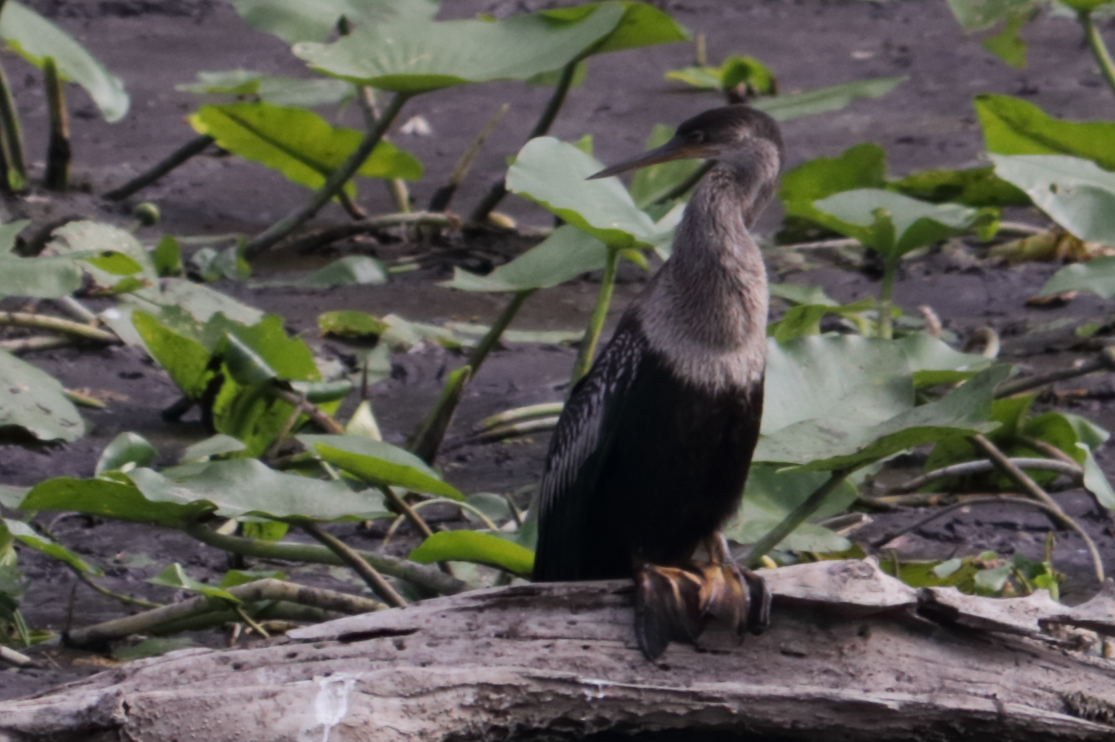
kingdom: Animalia
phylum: Chordata
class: Aves
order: Suliformes
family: Anhingidae
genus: Anhinga
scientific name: Anhinga anhinga
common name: Anhinga
